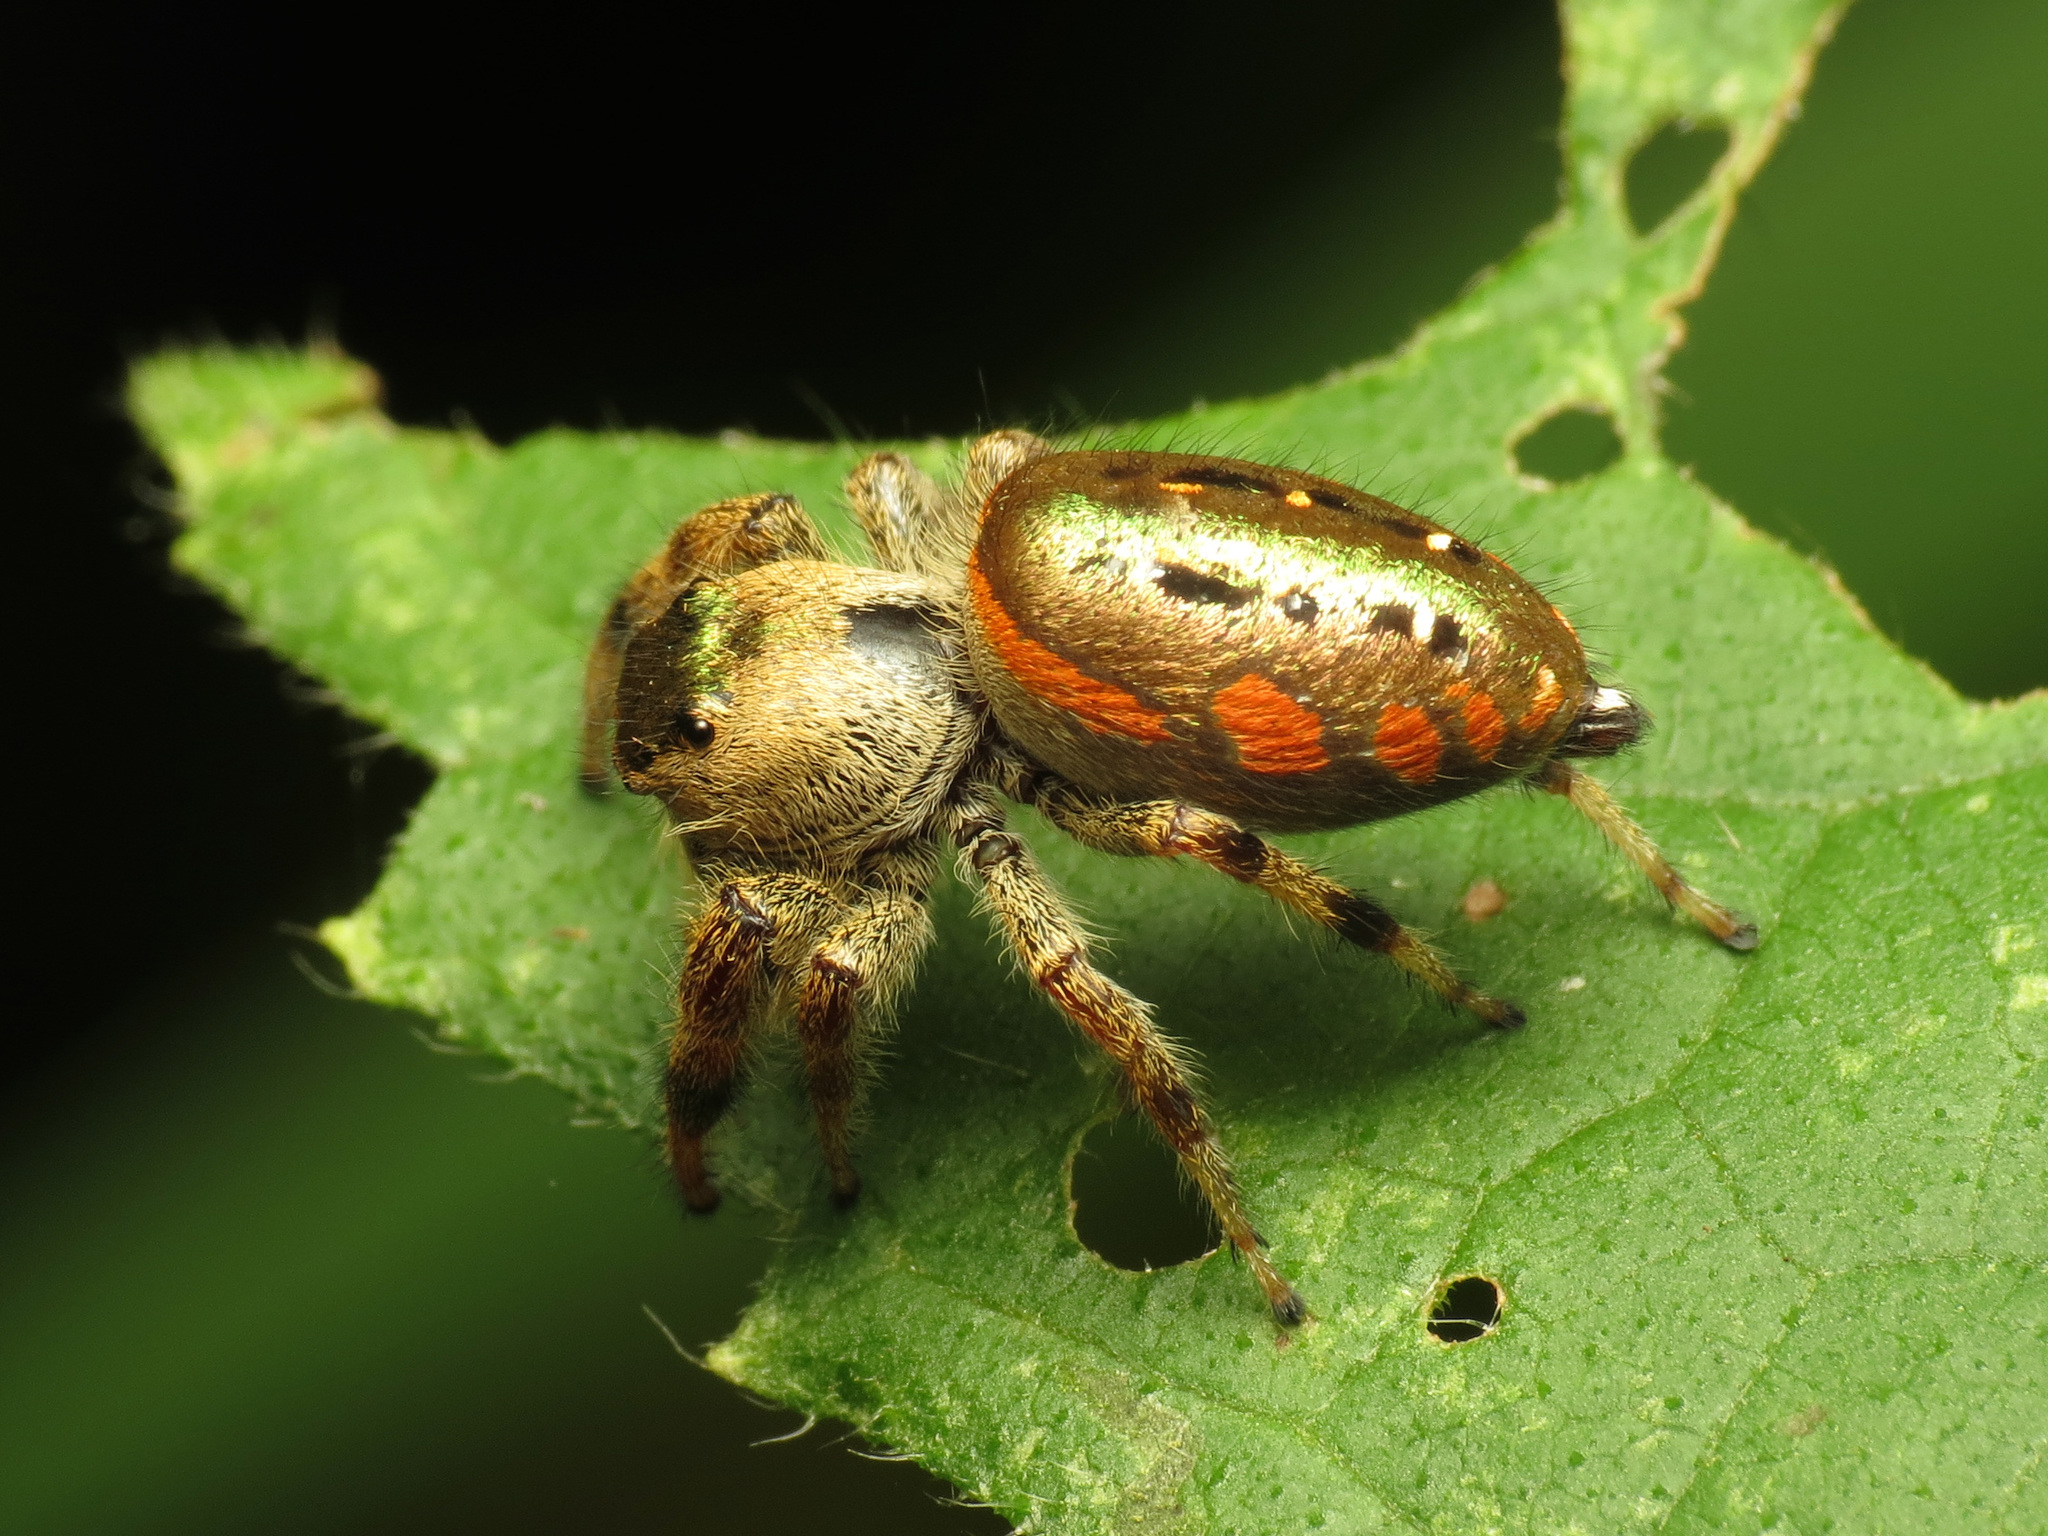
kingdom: Animalia
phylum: Arthropoda
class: Arachnida
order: Araneae
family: Salticidae
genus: Paraphidippus
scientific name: Paraphidippus aurantius
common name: Jumping spiders
